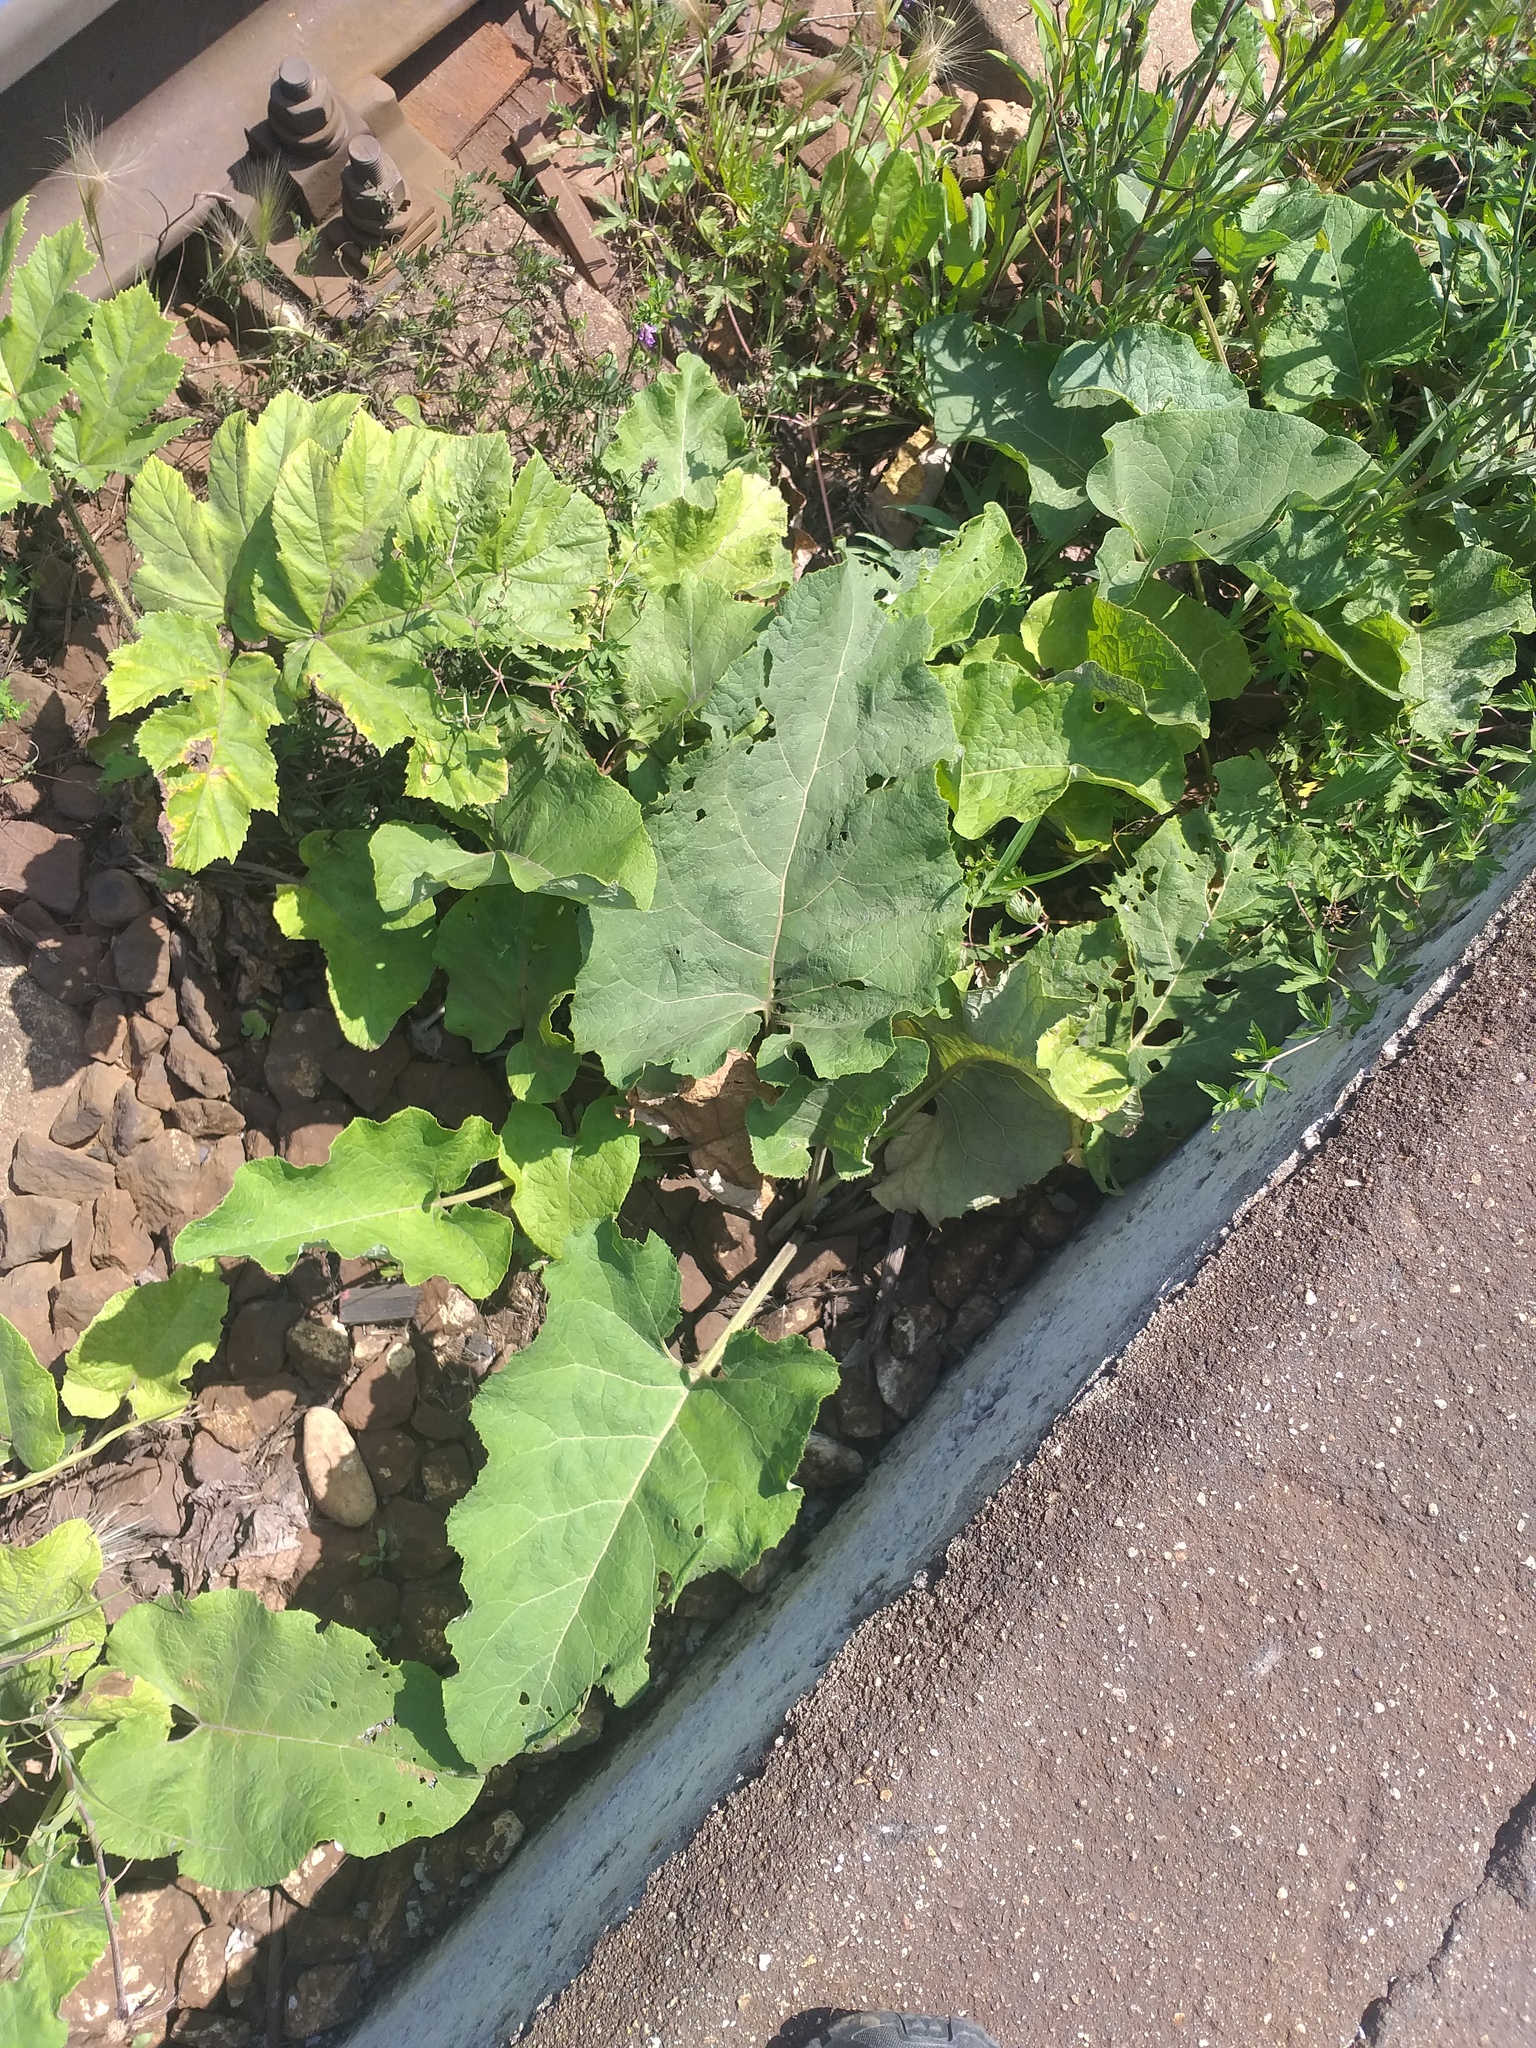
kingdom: Plantae
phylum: Tracheophyta
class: Magnoliopsida
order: Asterales
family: Asteraceae
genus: Arctium
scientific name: Arctium
